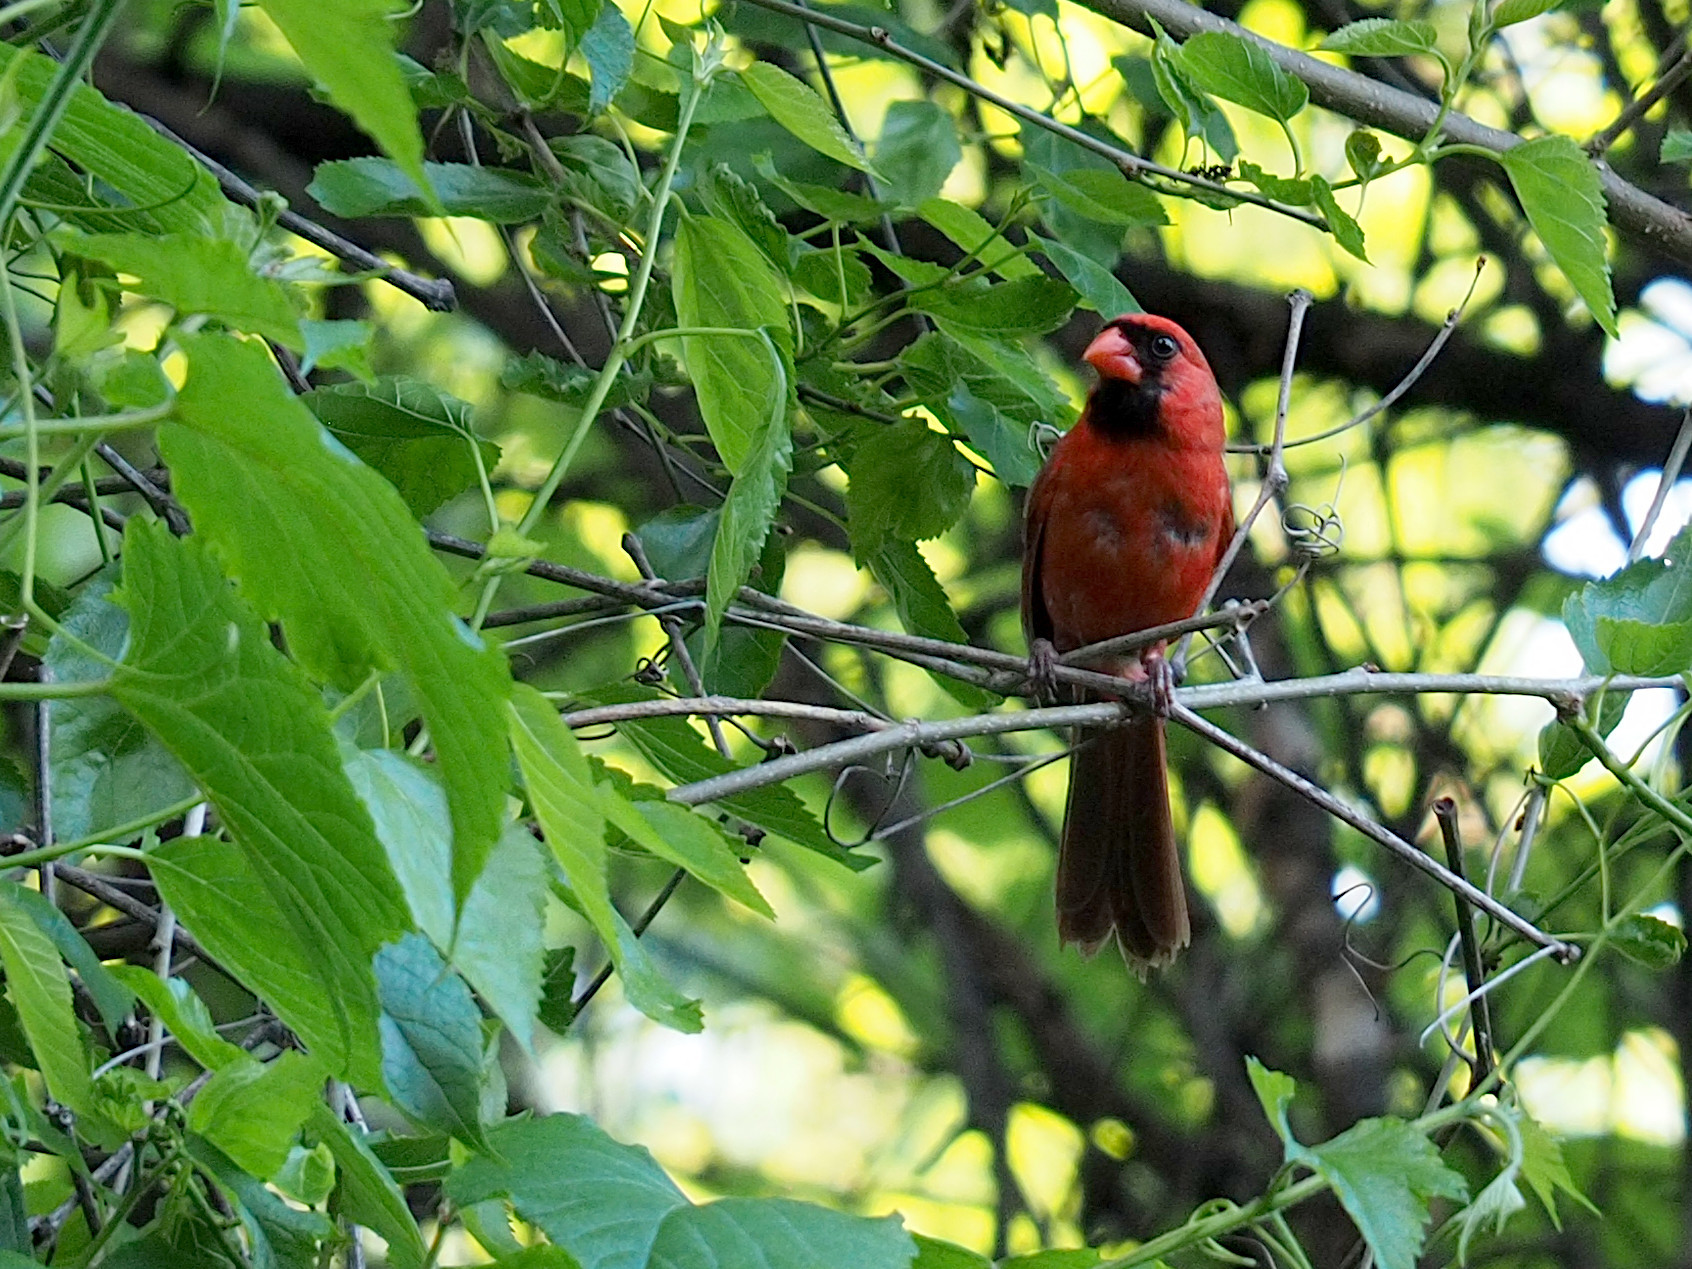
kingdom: Animalia
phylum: Chordata
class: Aves
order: Passeriformes
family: Cardinalidae
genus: Cardinalis
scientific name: Cardinalis cardinalis
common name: Northern cardinal
